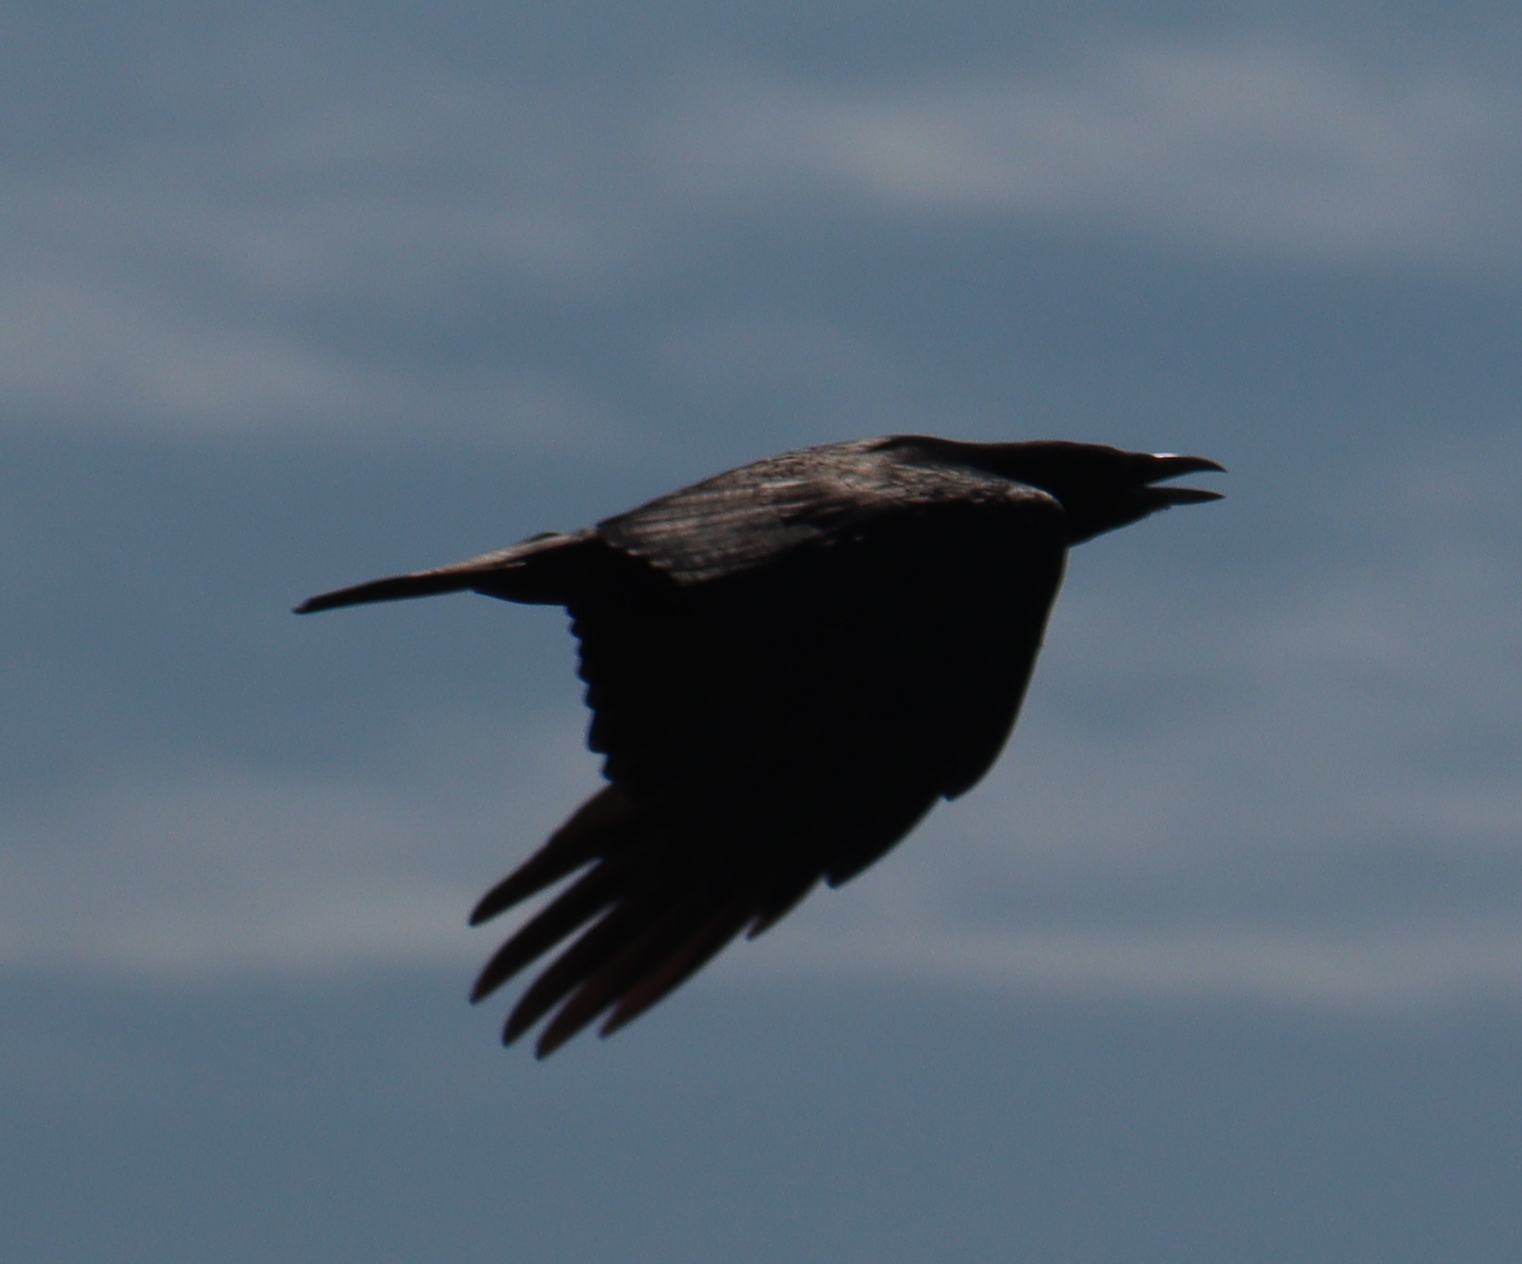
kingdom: Animalia
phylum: Chordata
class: Aves
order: Passeriformes
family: Corvidae
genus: Corvus
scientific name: Corvus corone
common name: Carrion crow
